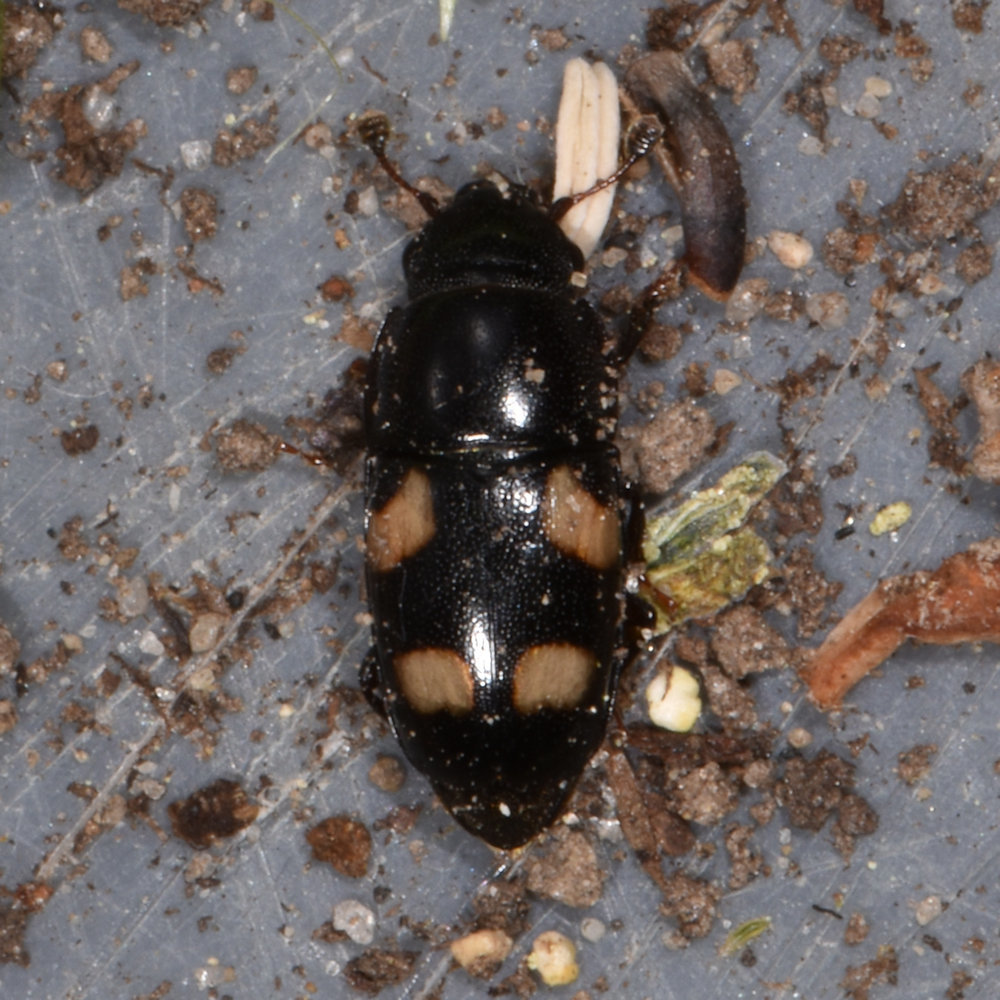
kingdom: Animalia
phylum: Arthropoda
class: Insecta
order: Coleoptera
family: Nitidulidae
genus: Glischrochilus
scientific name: Glischrochilus quadrisignatus
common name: Picnic beetle
